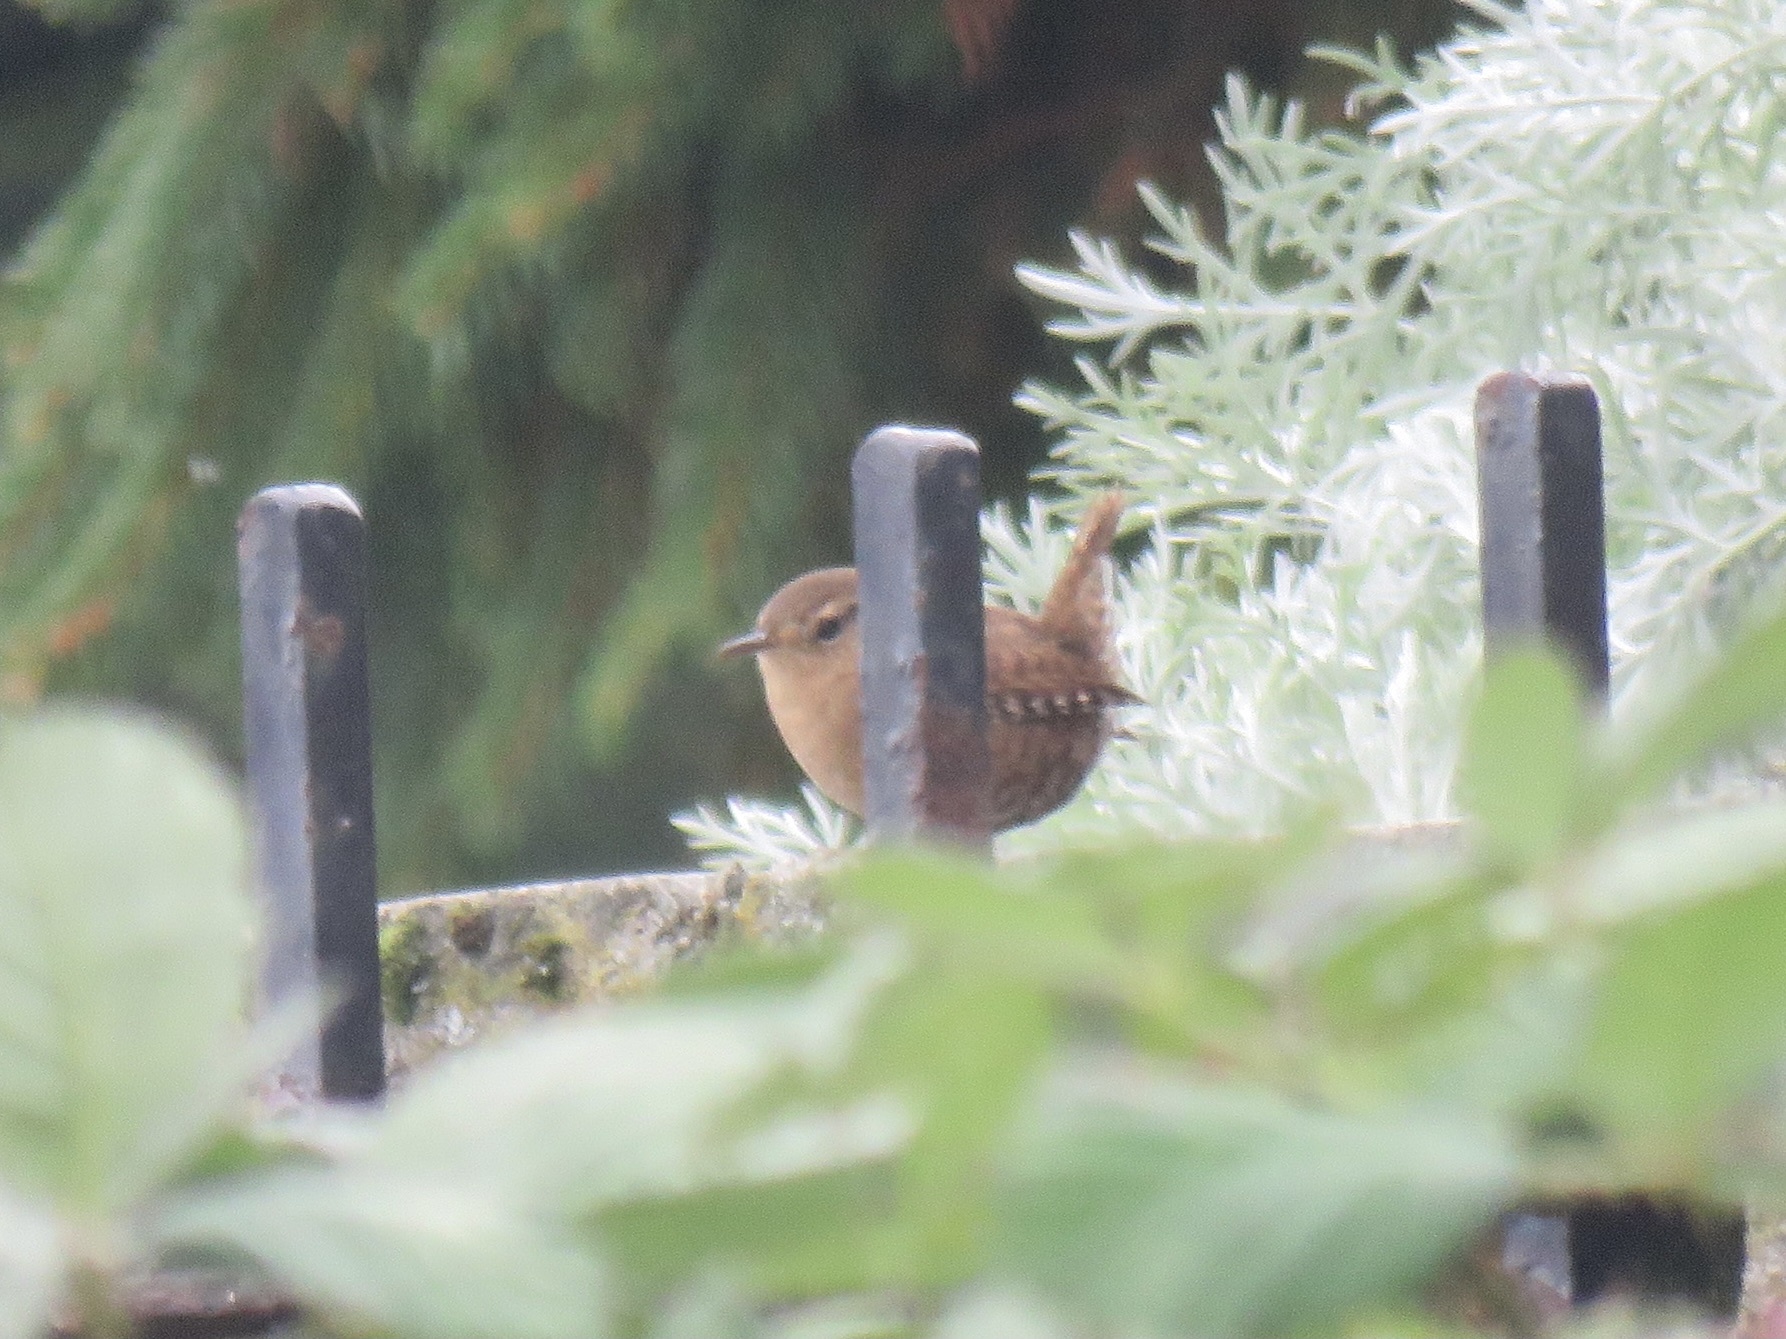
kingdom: Animalia
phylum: Chordata
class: Aves
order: Passeriformes
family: Troglodytidae
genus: Troglodytes
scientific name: Troglodytes pacificus
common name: Pacific wren
